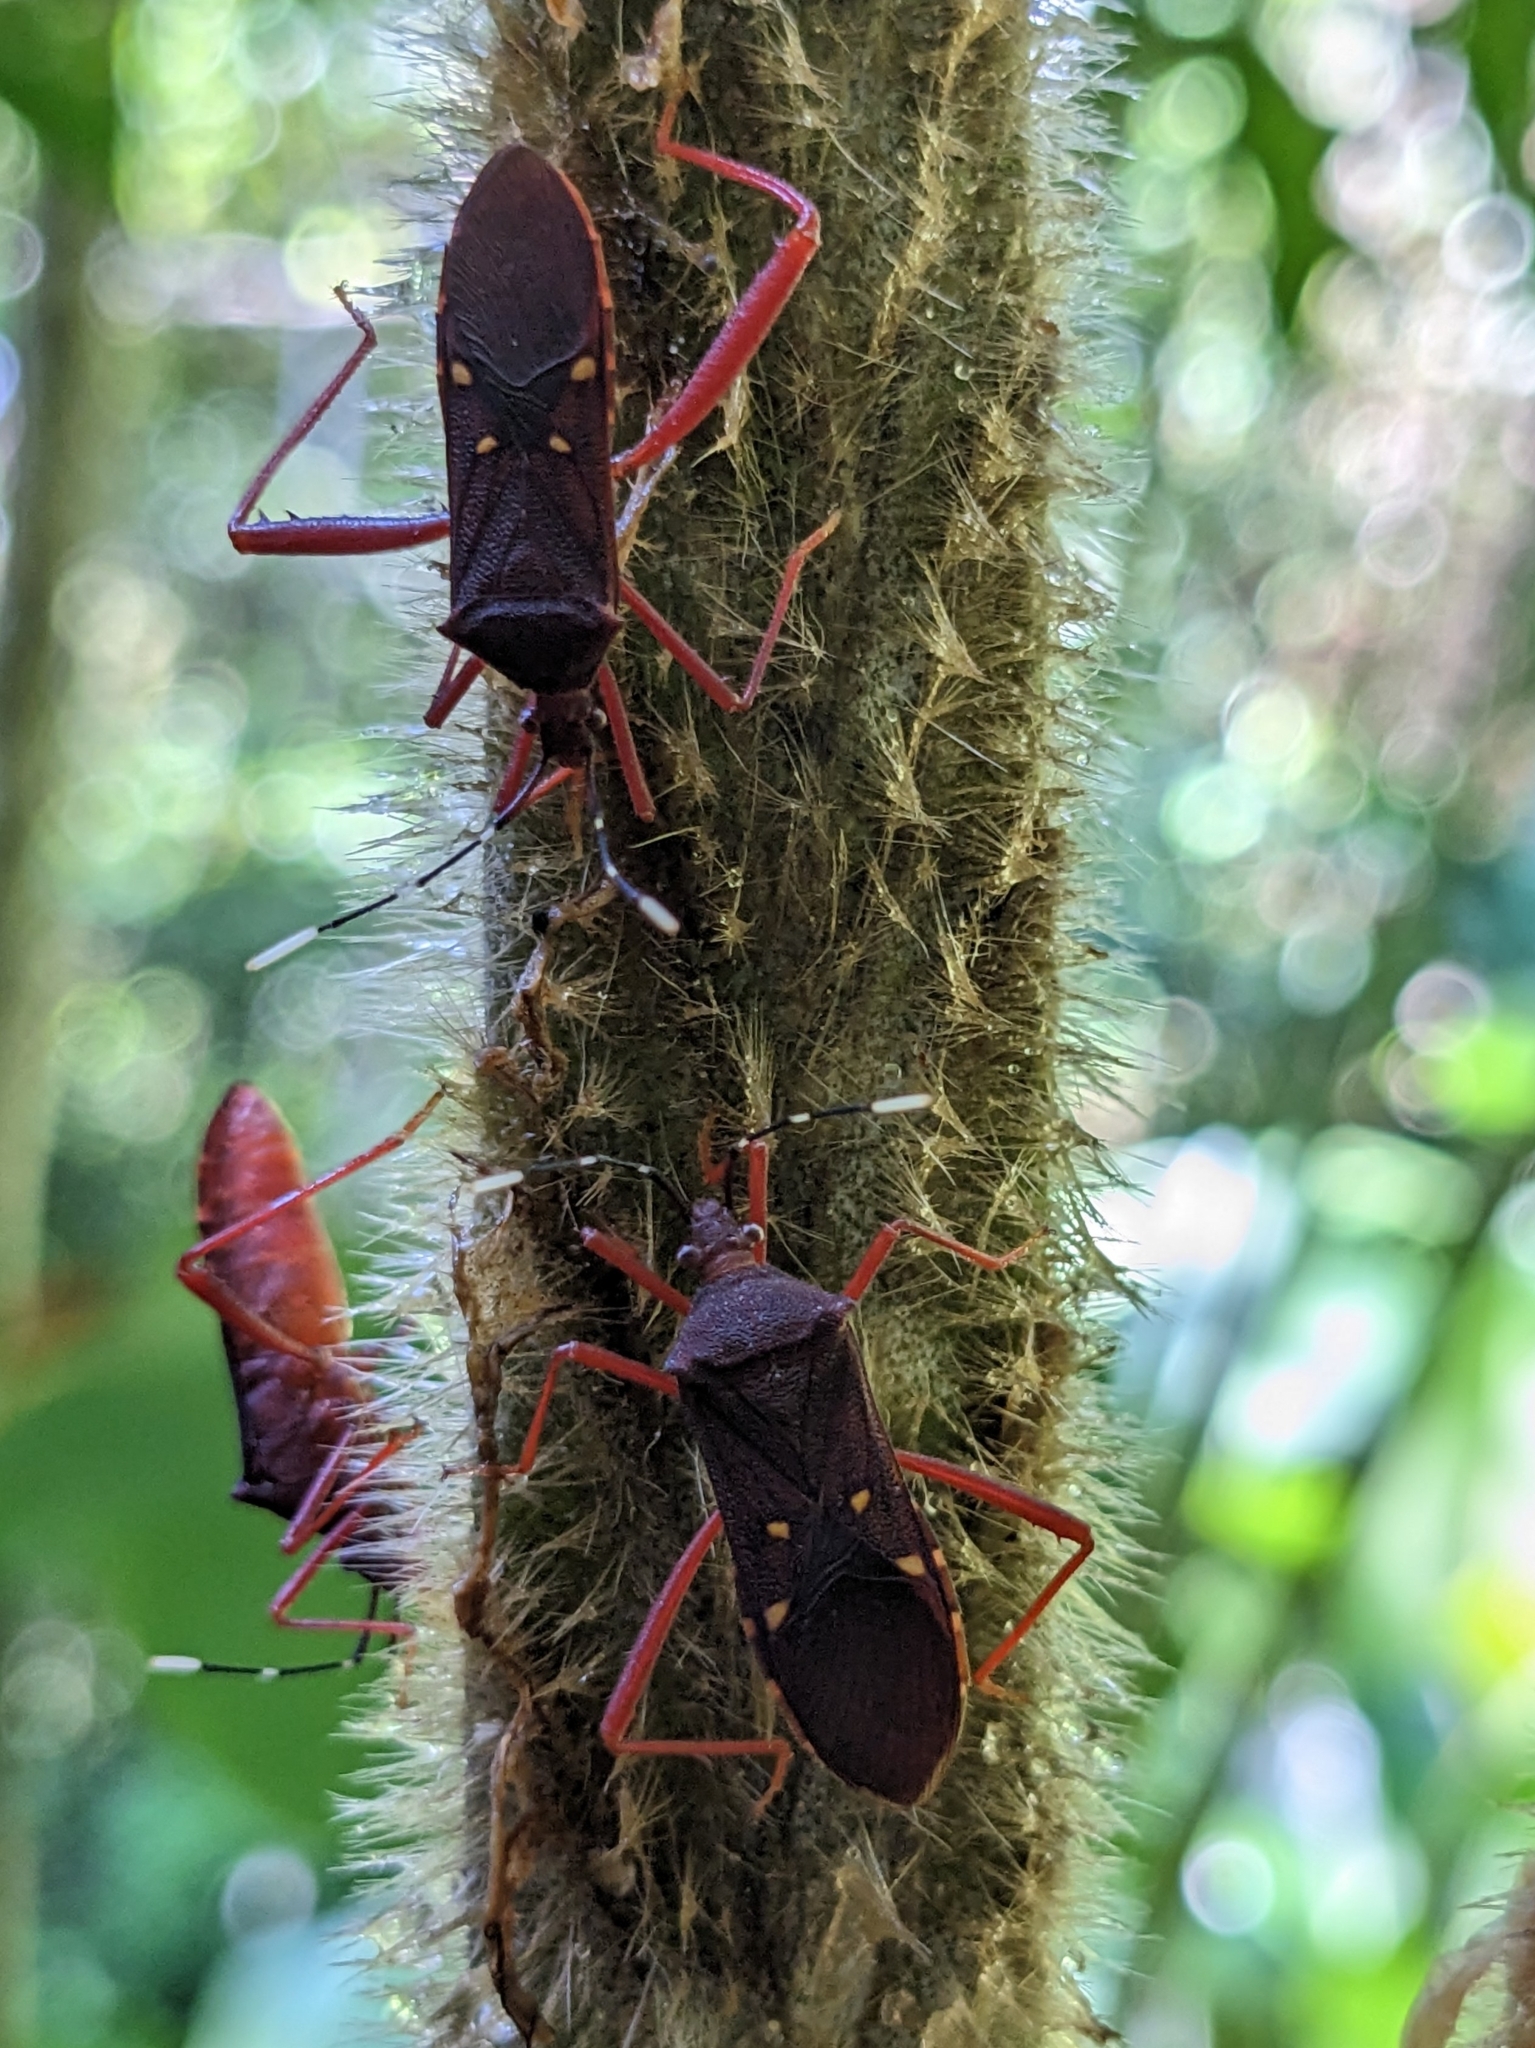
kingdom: Animalia
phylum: Arthropoda
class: Insecta
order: Hemiptera
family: Coreidae
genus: Leptoscelis
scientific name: Leptoscelis quadrisignatus
